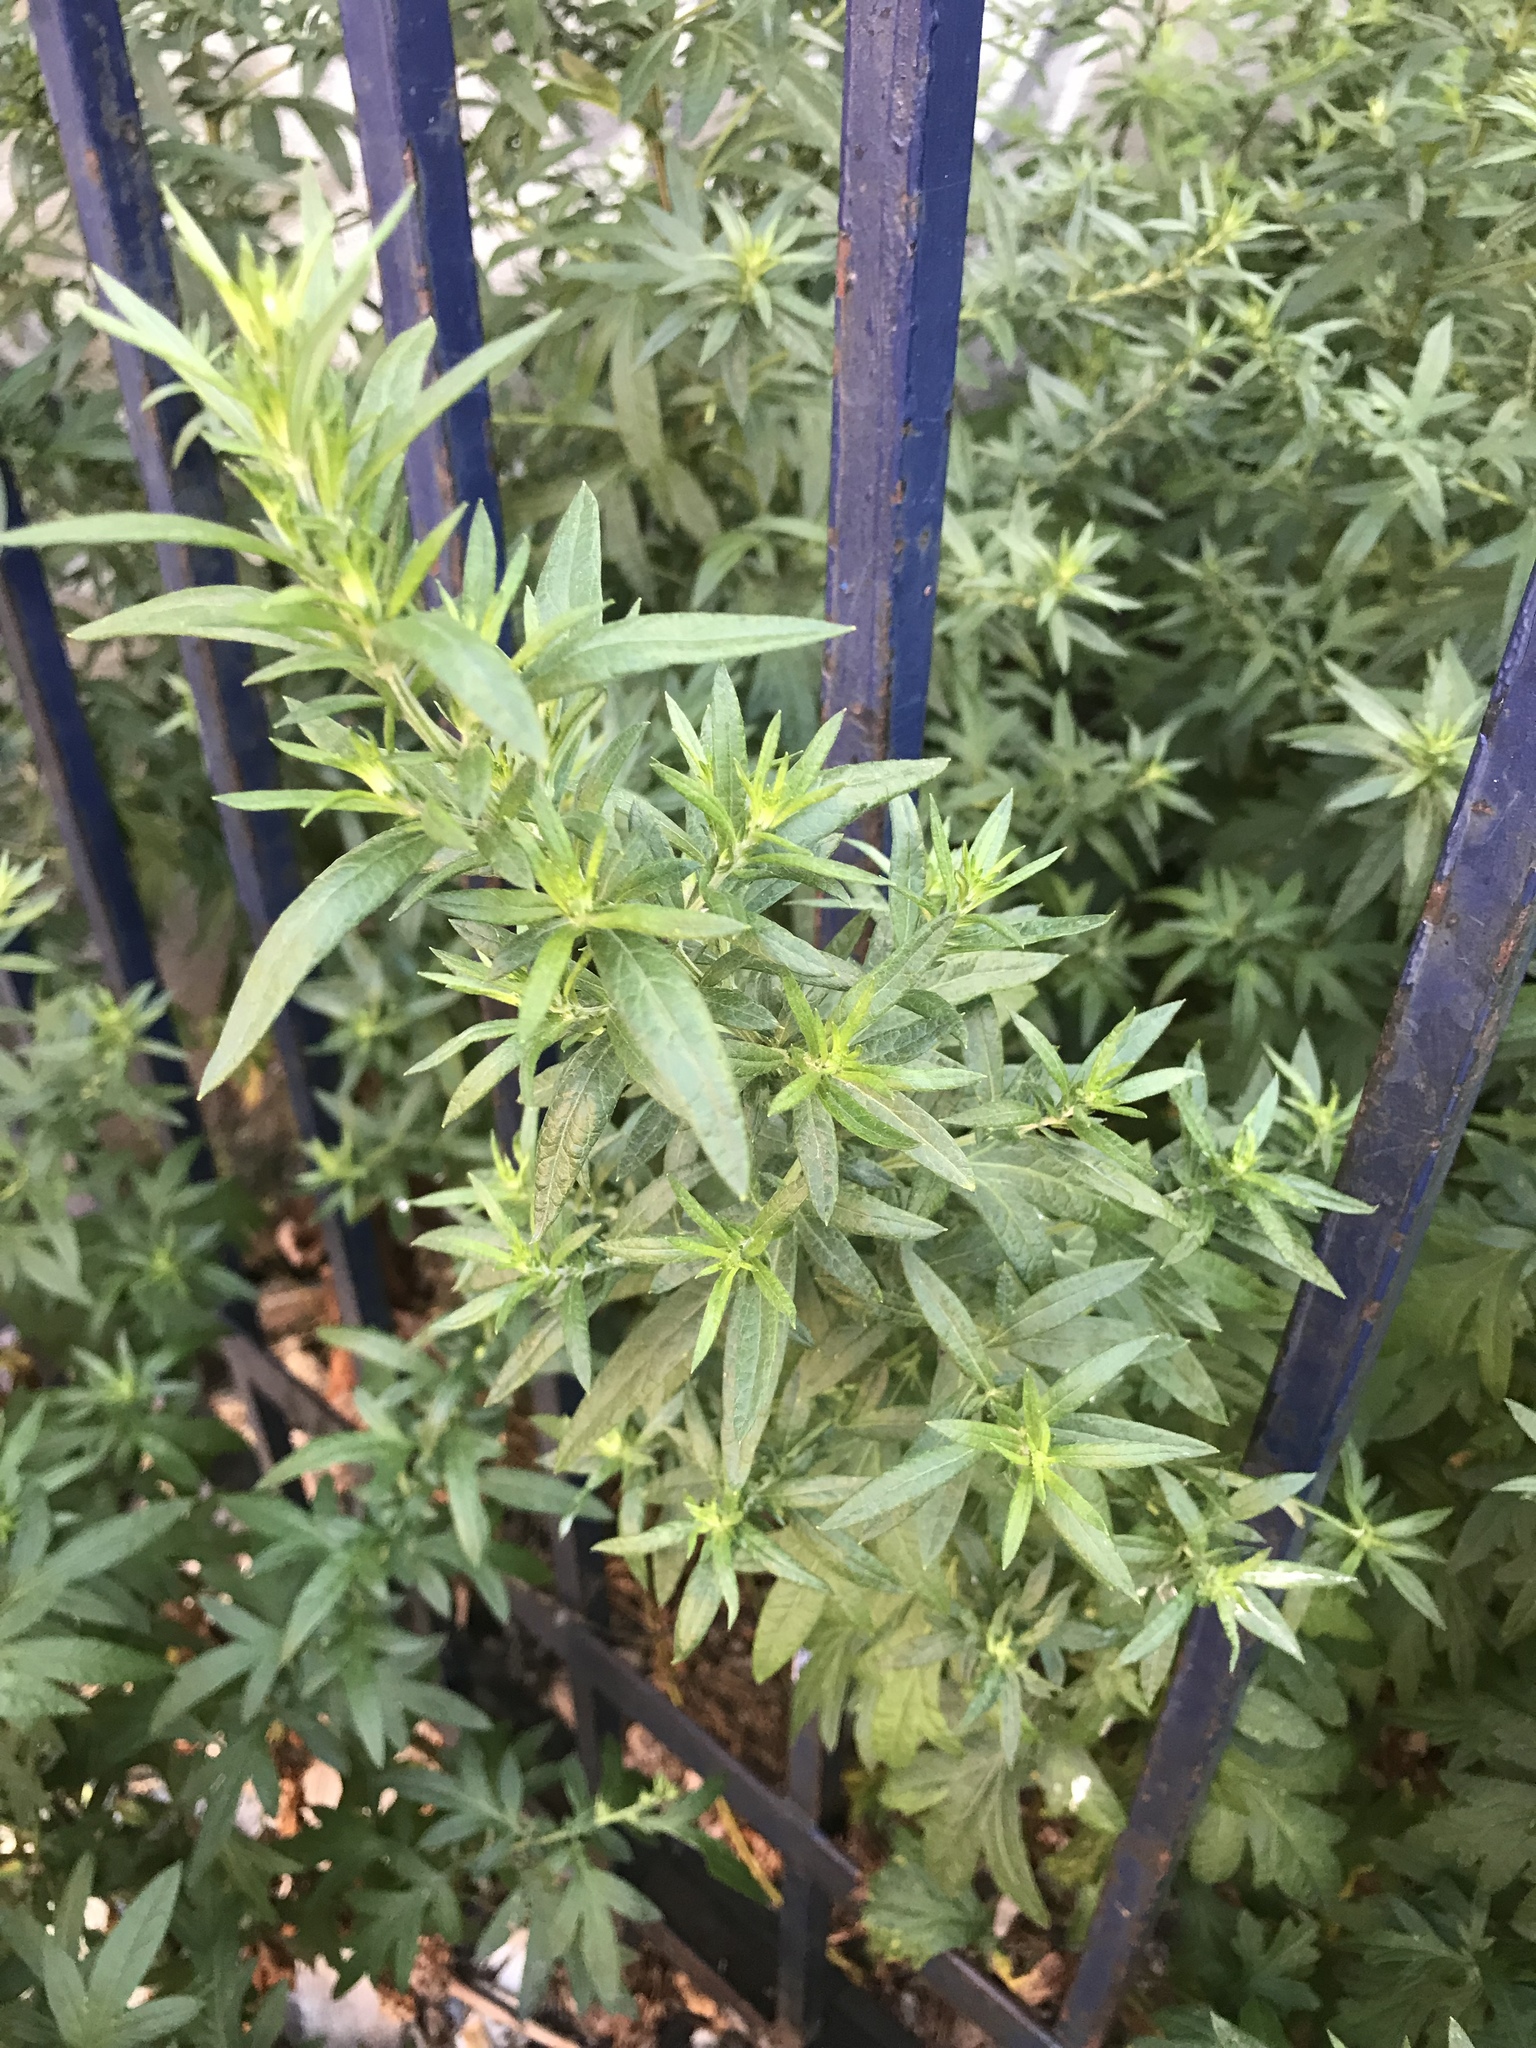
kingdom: Plantae
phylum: Tracheophyta
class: Magnoliopsida
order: Asterales
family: Asteraceae
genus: Artemisia
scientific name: Artemisia vulgaris
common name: Mugwort
